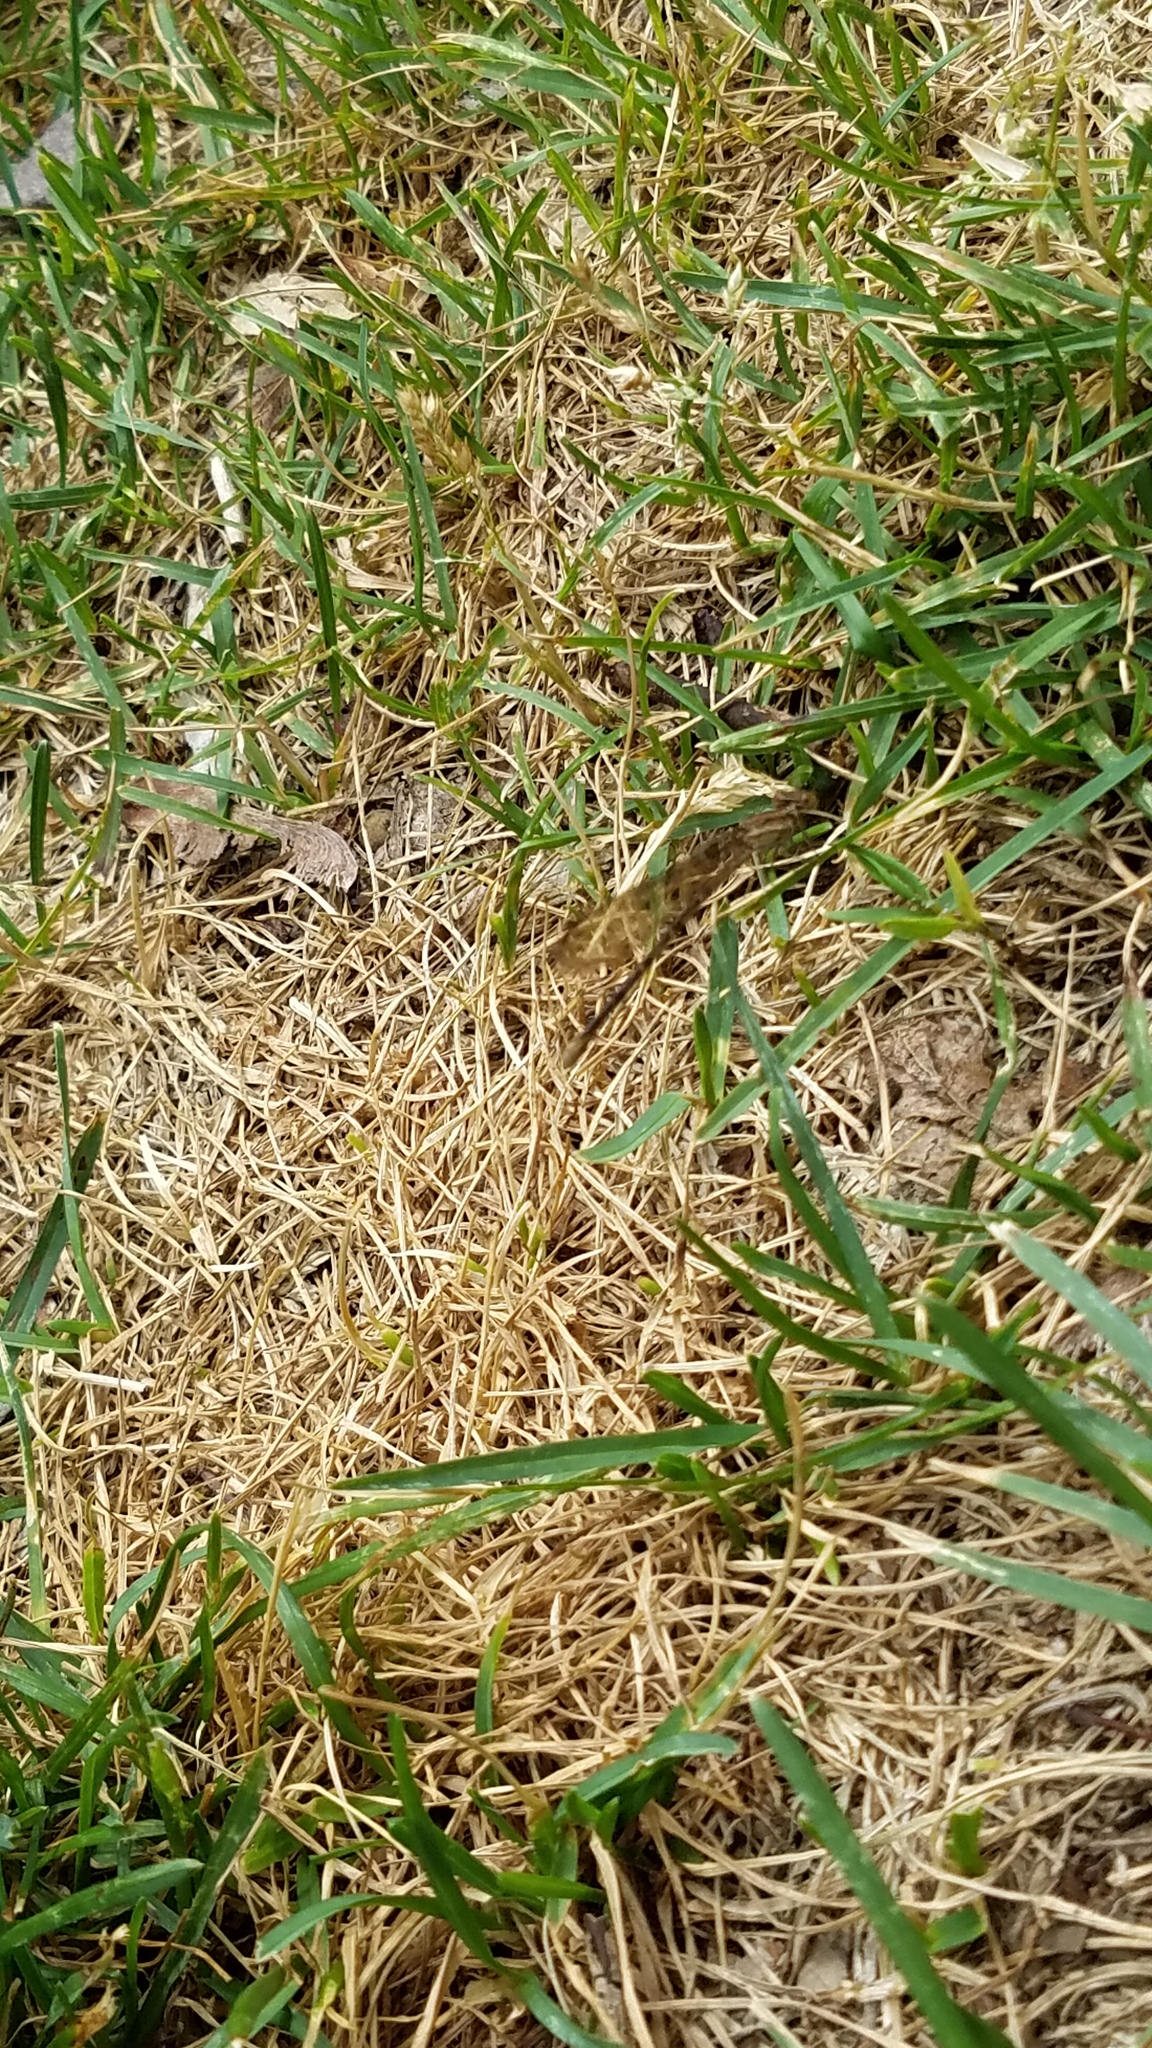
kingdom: Animalia
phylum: Arthropoda
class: Insecta
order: Odonata
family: Coenagrionidae
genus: Argia
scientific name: Argia fumipennis
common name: Variable dancer
